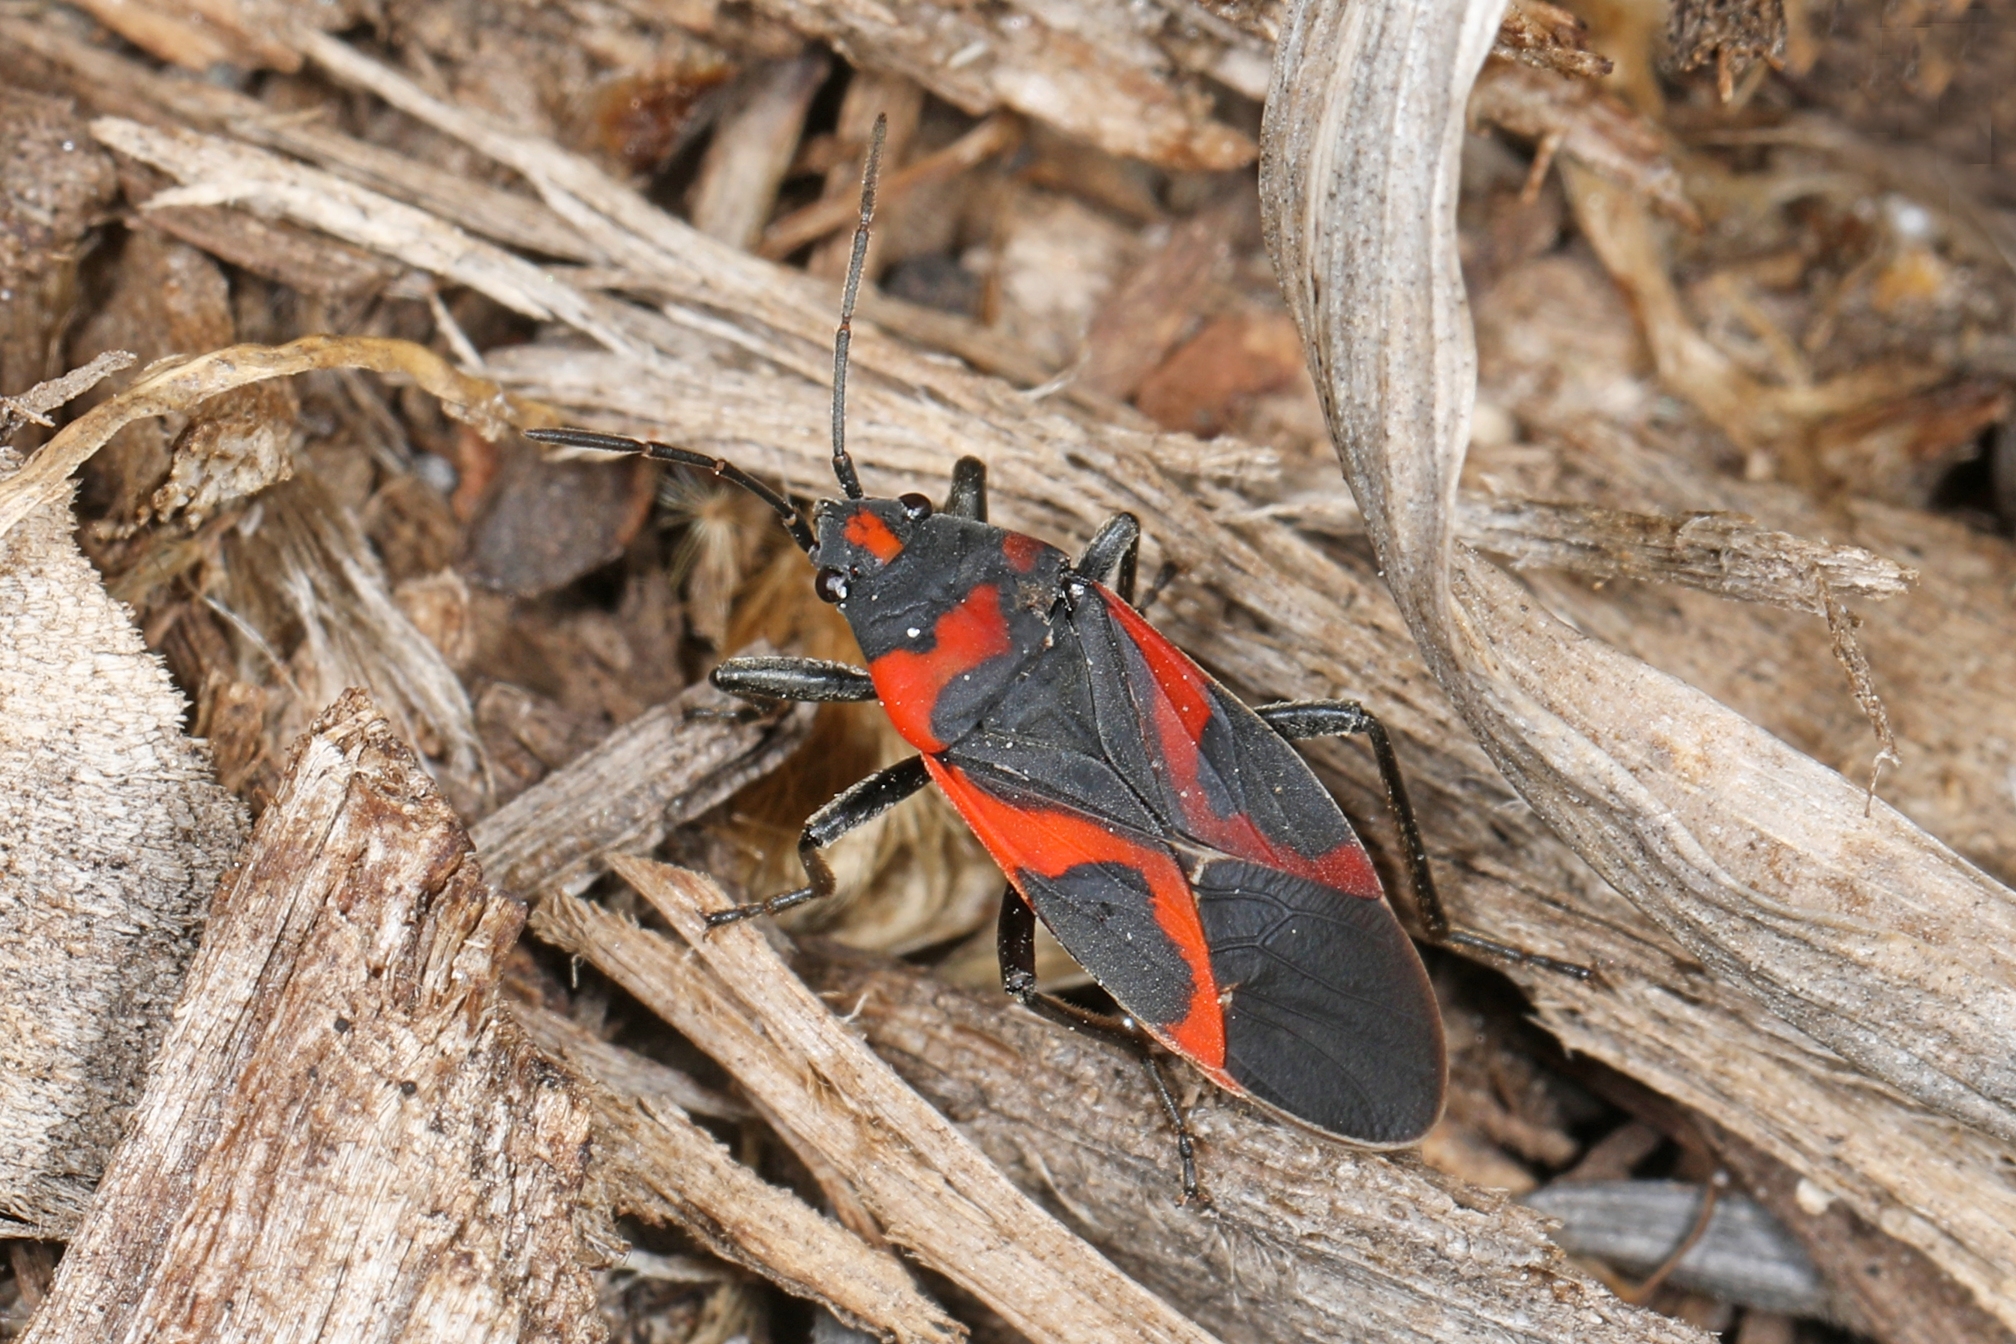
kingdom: Animalia
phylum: Arthropoda
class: Insecta
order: Hemiptera
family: Lygaeidae
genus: Lygaeus
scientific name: Lygaeus kalmii
